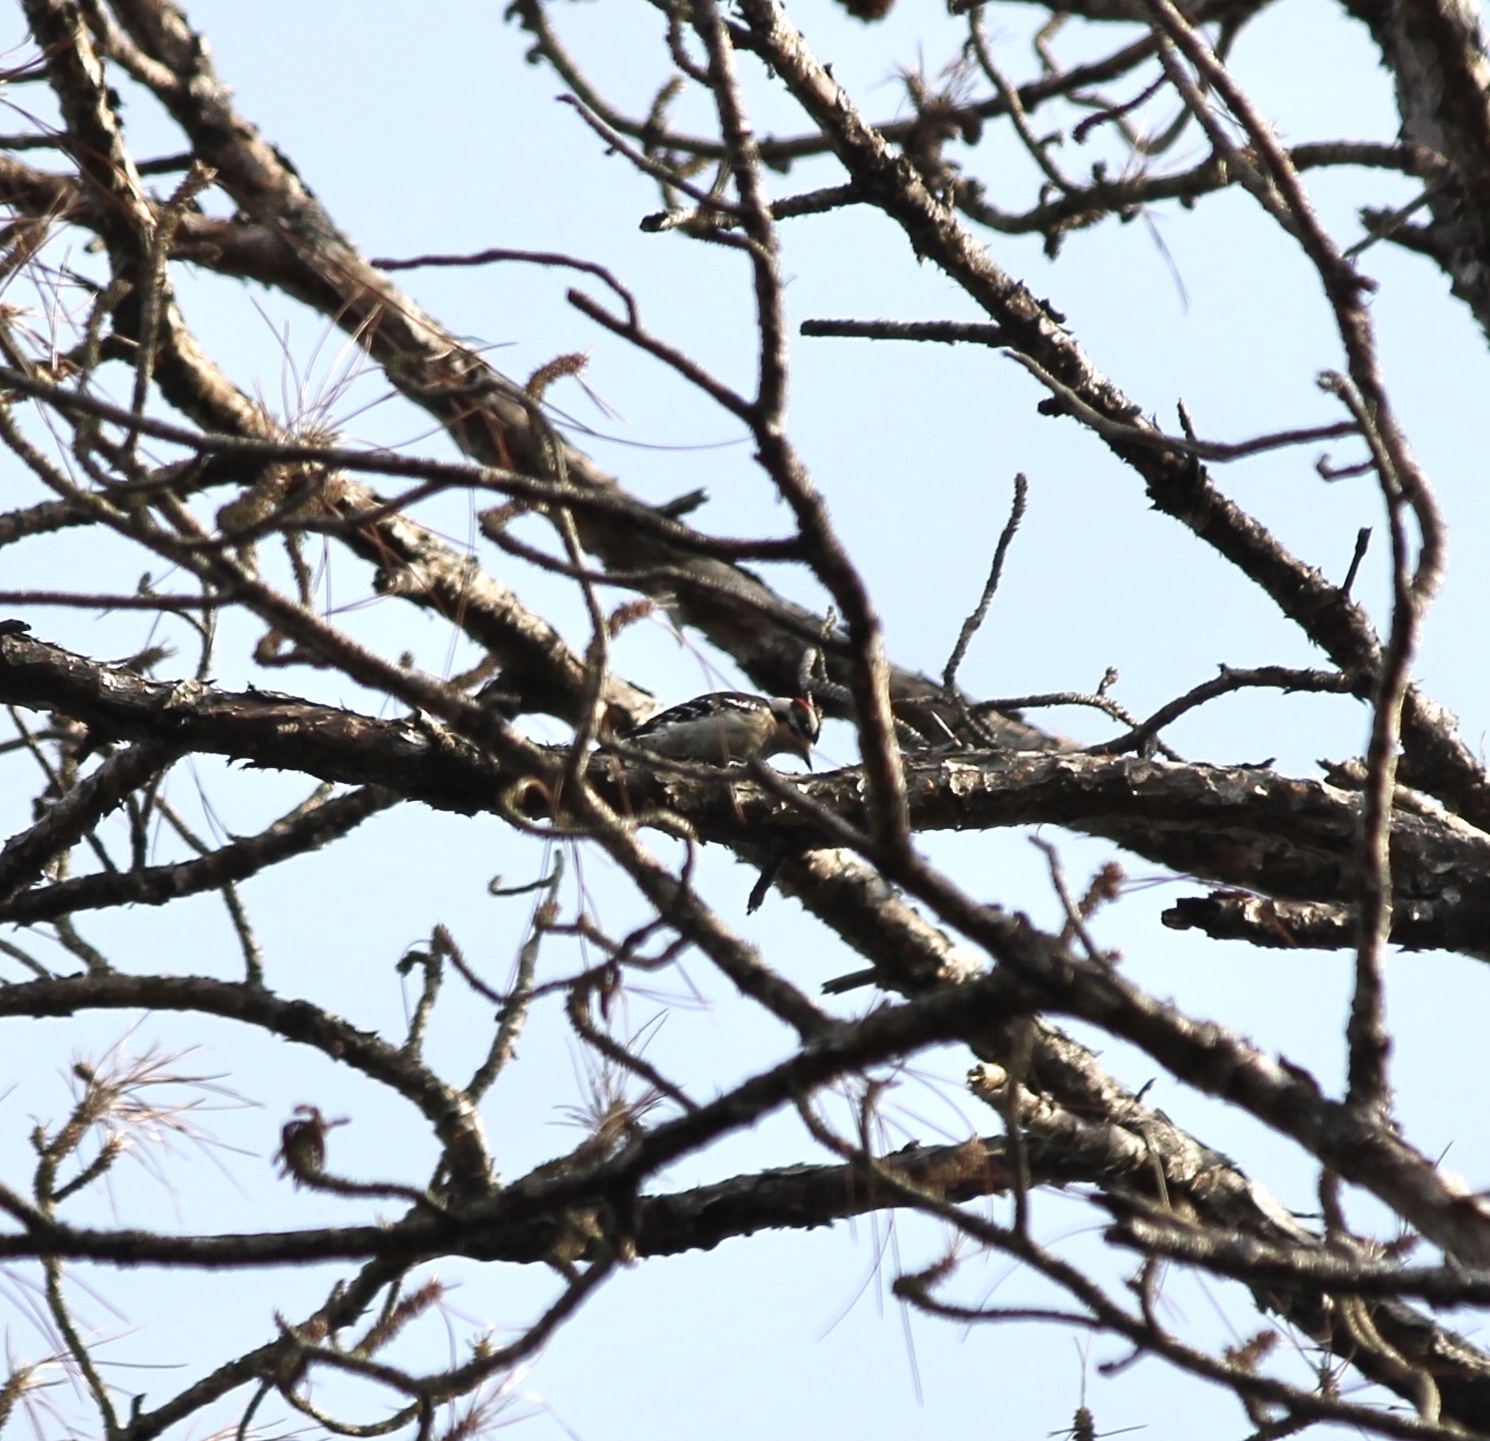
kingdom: Animalia
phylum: Chordata
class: Aves
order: Piciformes
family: Picidae
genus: Dryobates
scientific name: Dryobates pubescens
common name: Downy woodpecker
